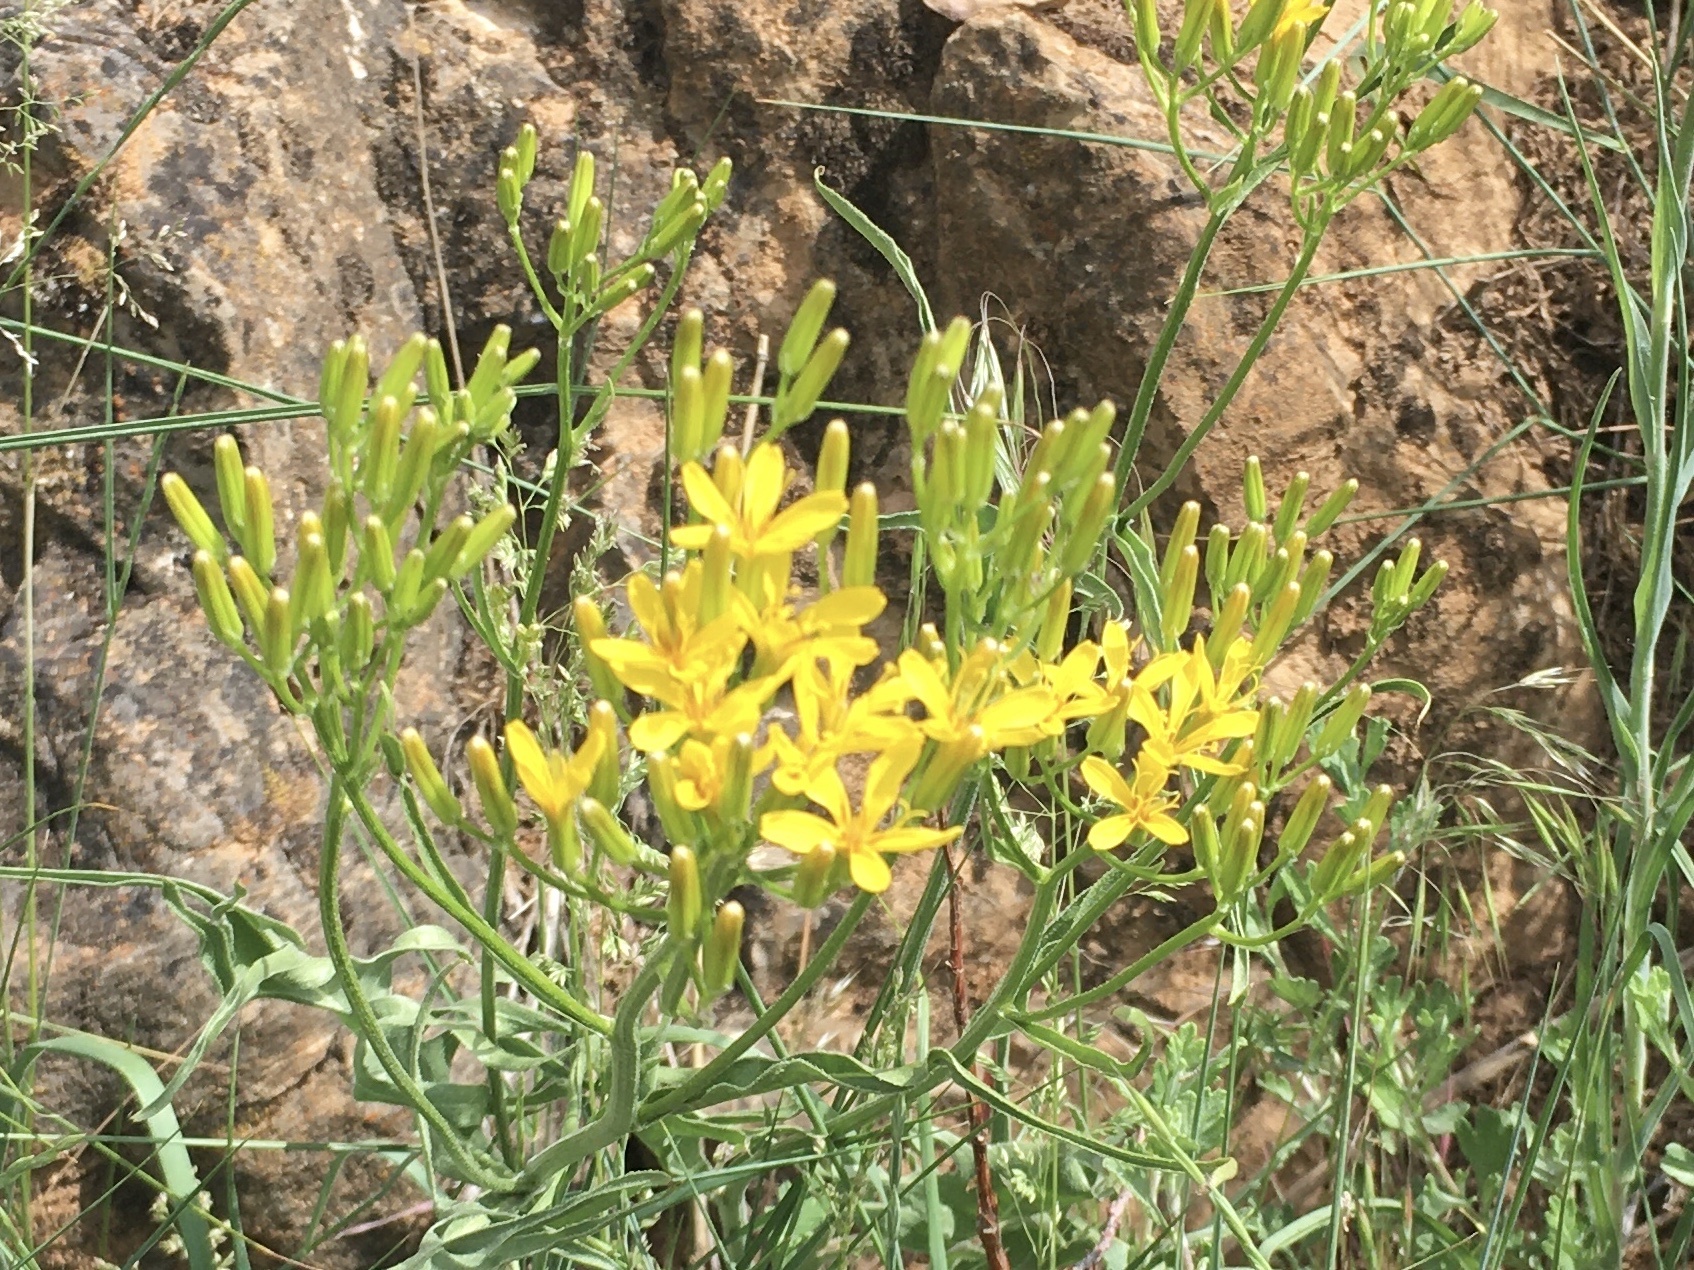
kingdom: Plantae
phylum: Tracheophyta
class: Magnoliopsida
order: Asterales
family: Asteraceae
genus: Crepis
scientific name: Crepis acuminata
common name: Longleaf hawk's-beard
